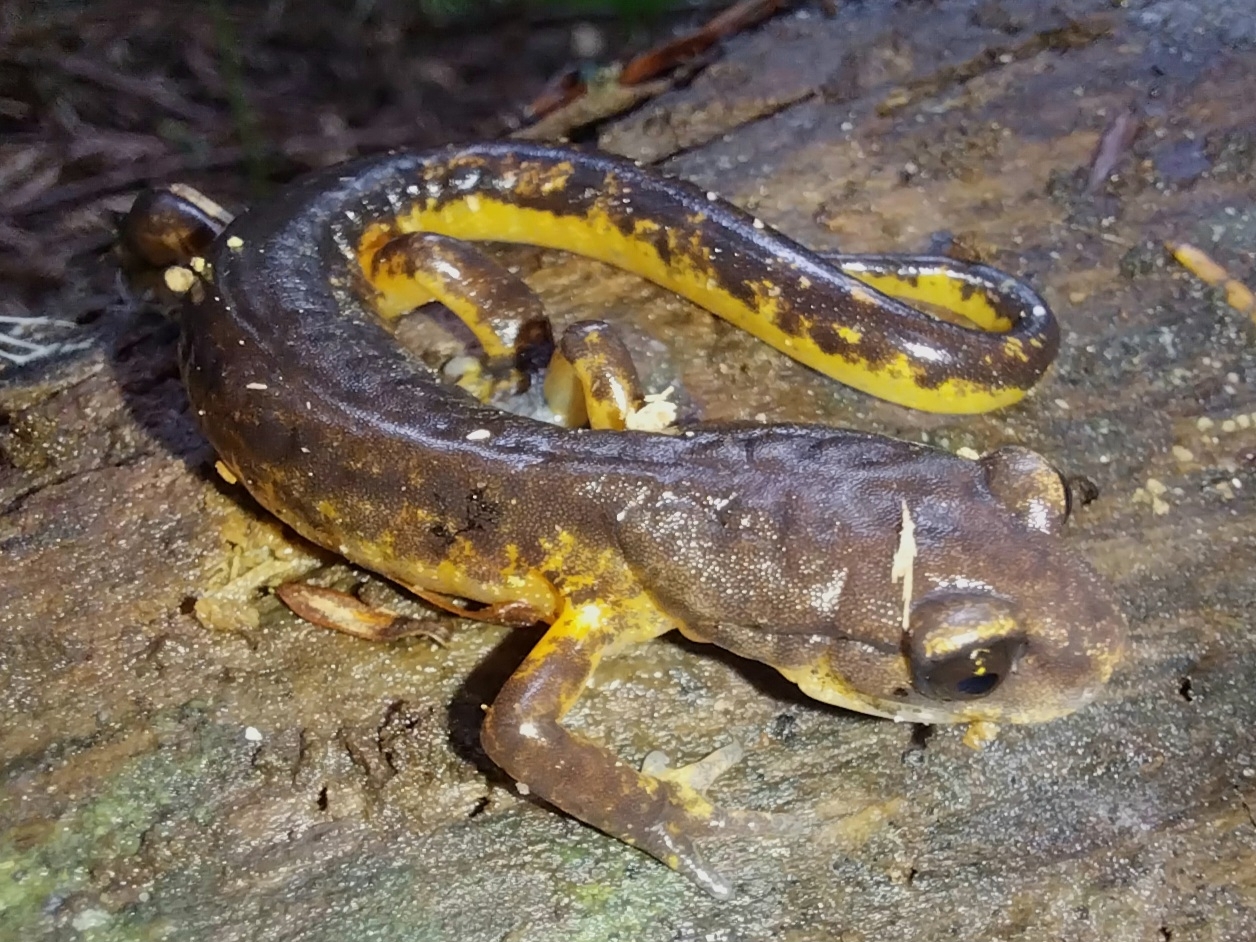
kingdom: Animalia
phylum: Chordata
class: Amphibia
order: Caudata
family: Plethodontidae
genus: Ensatina
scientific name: Ensatina eschscholtzii
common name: Ensatina
